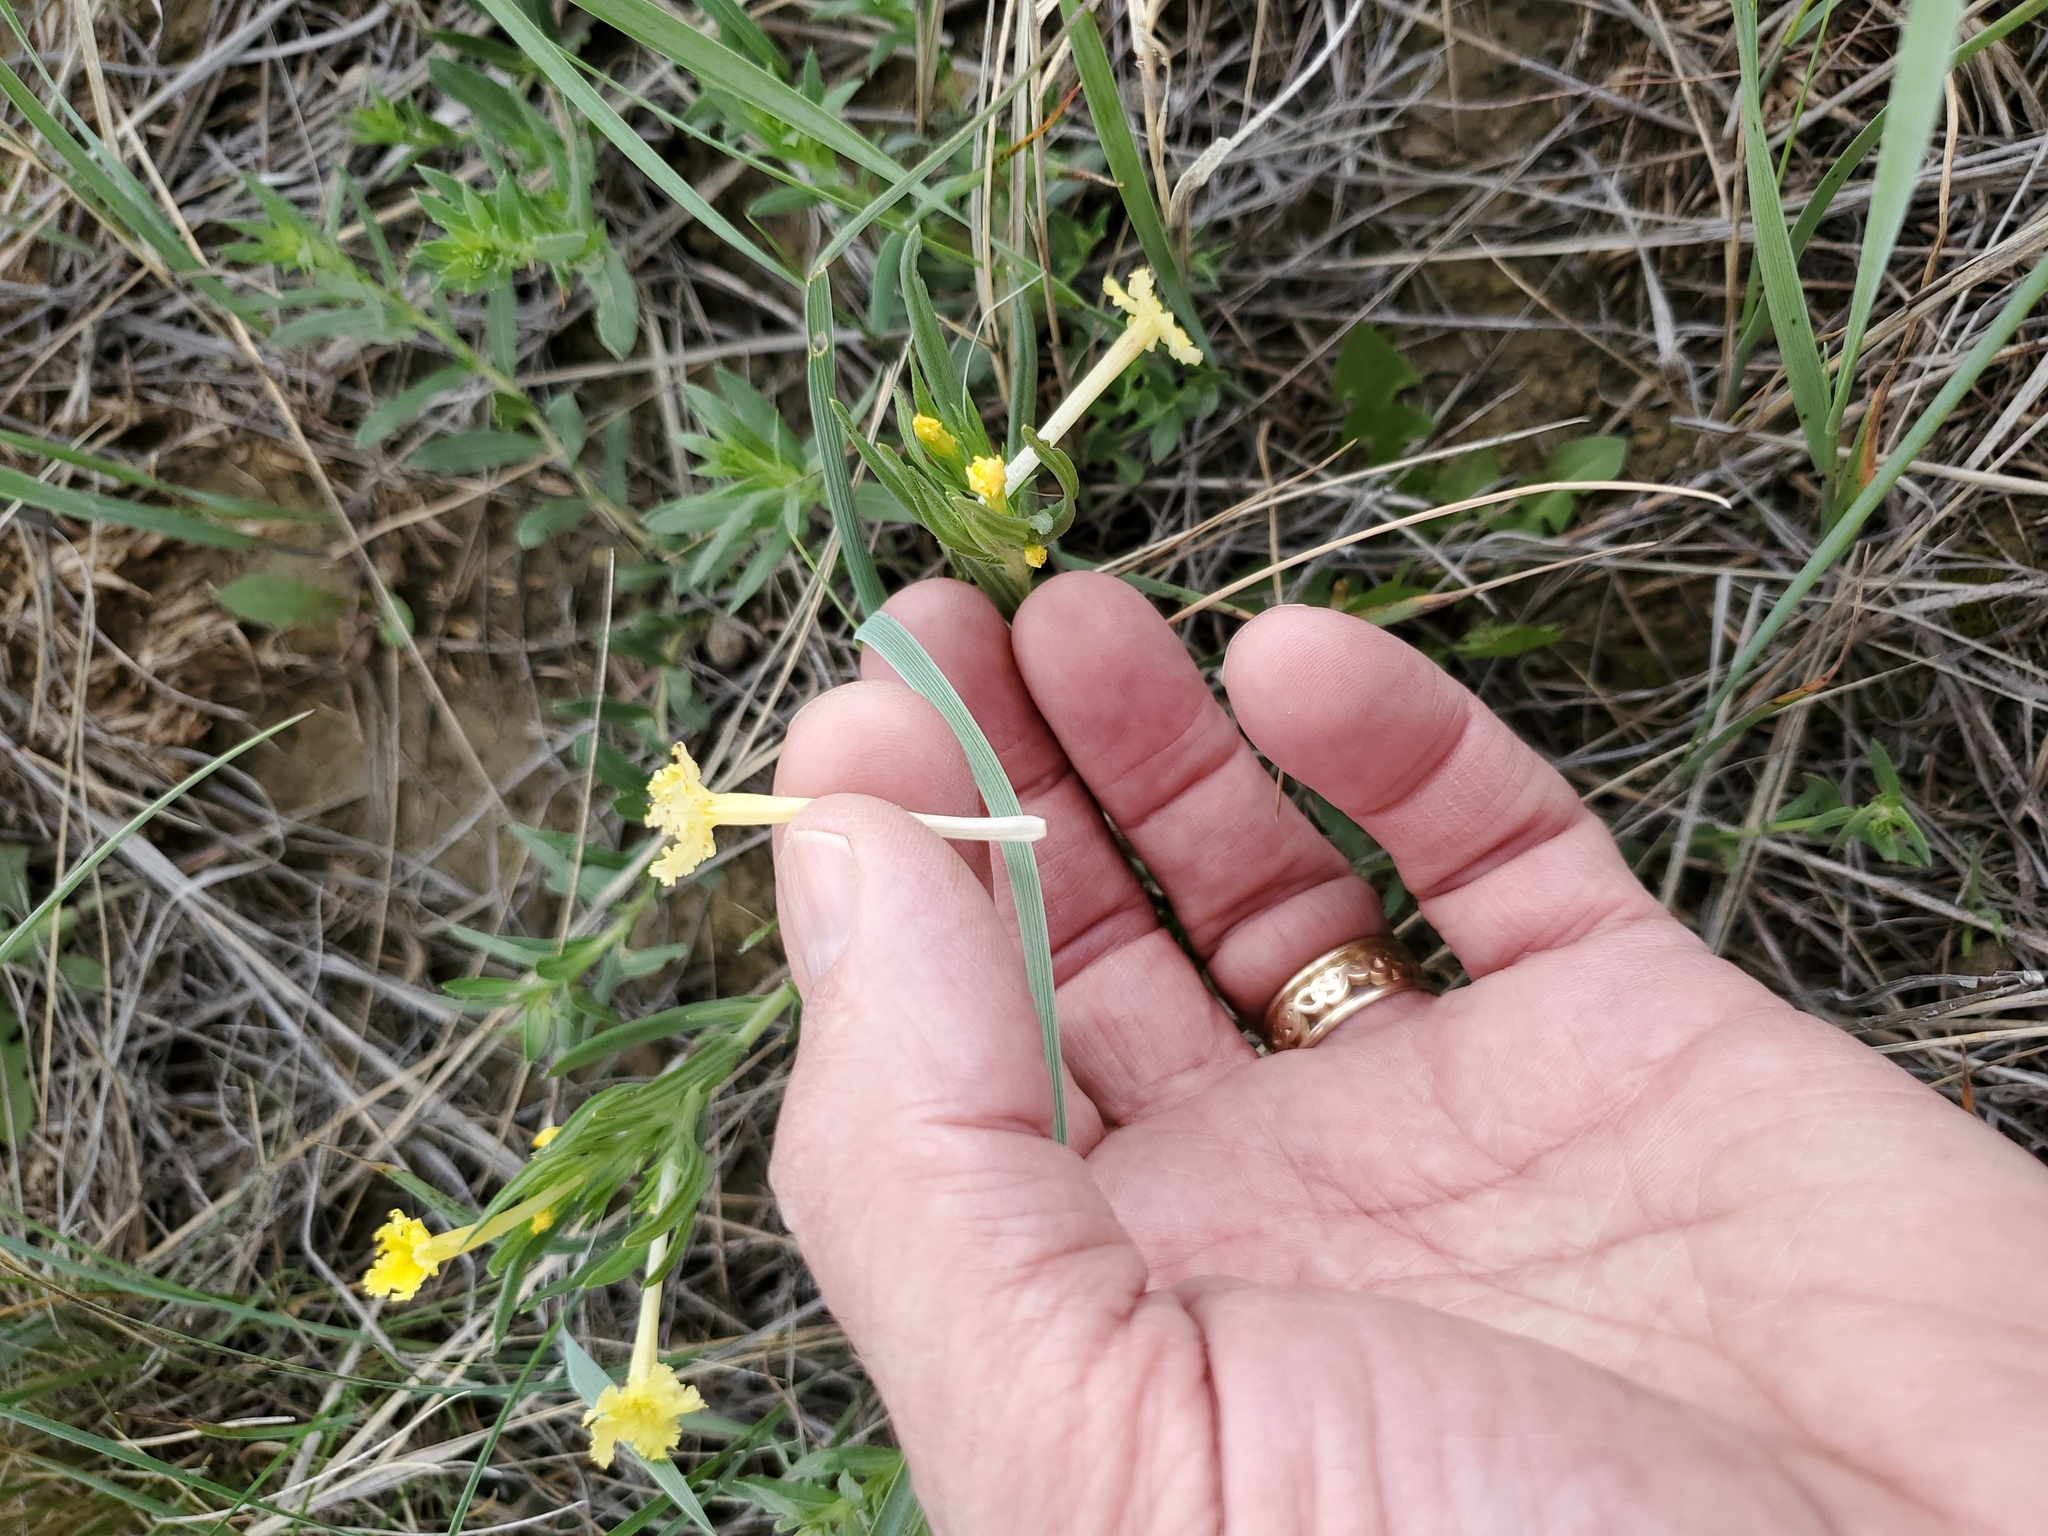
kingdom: Plantae
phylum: Tracheophyta
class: Magnoliopsida
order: Boraginales
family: Boraginaceae
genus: Lithospermum
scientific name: Lithospermum incisum
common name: Fringed gromwell
